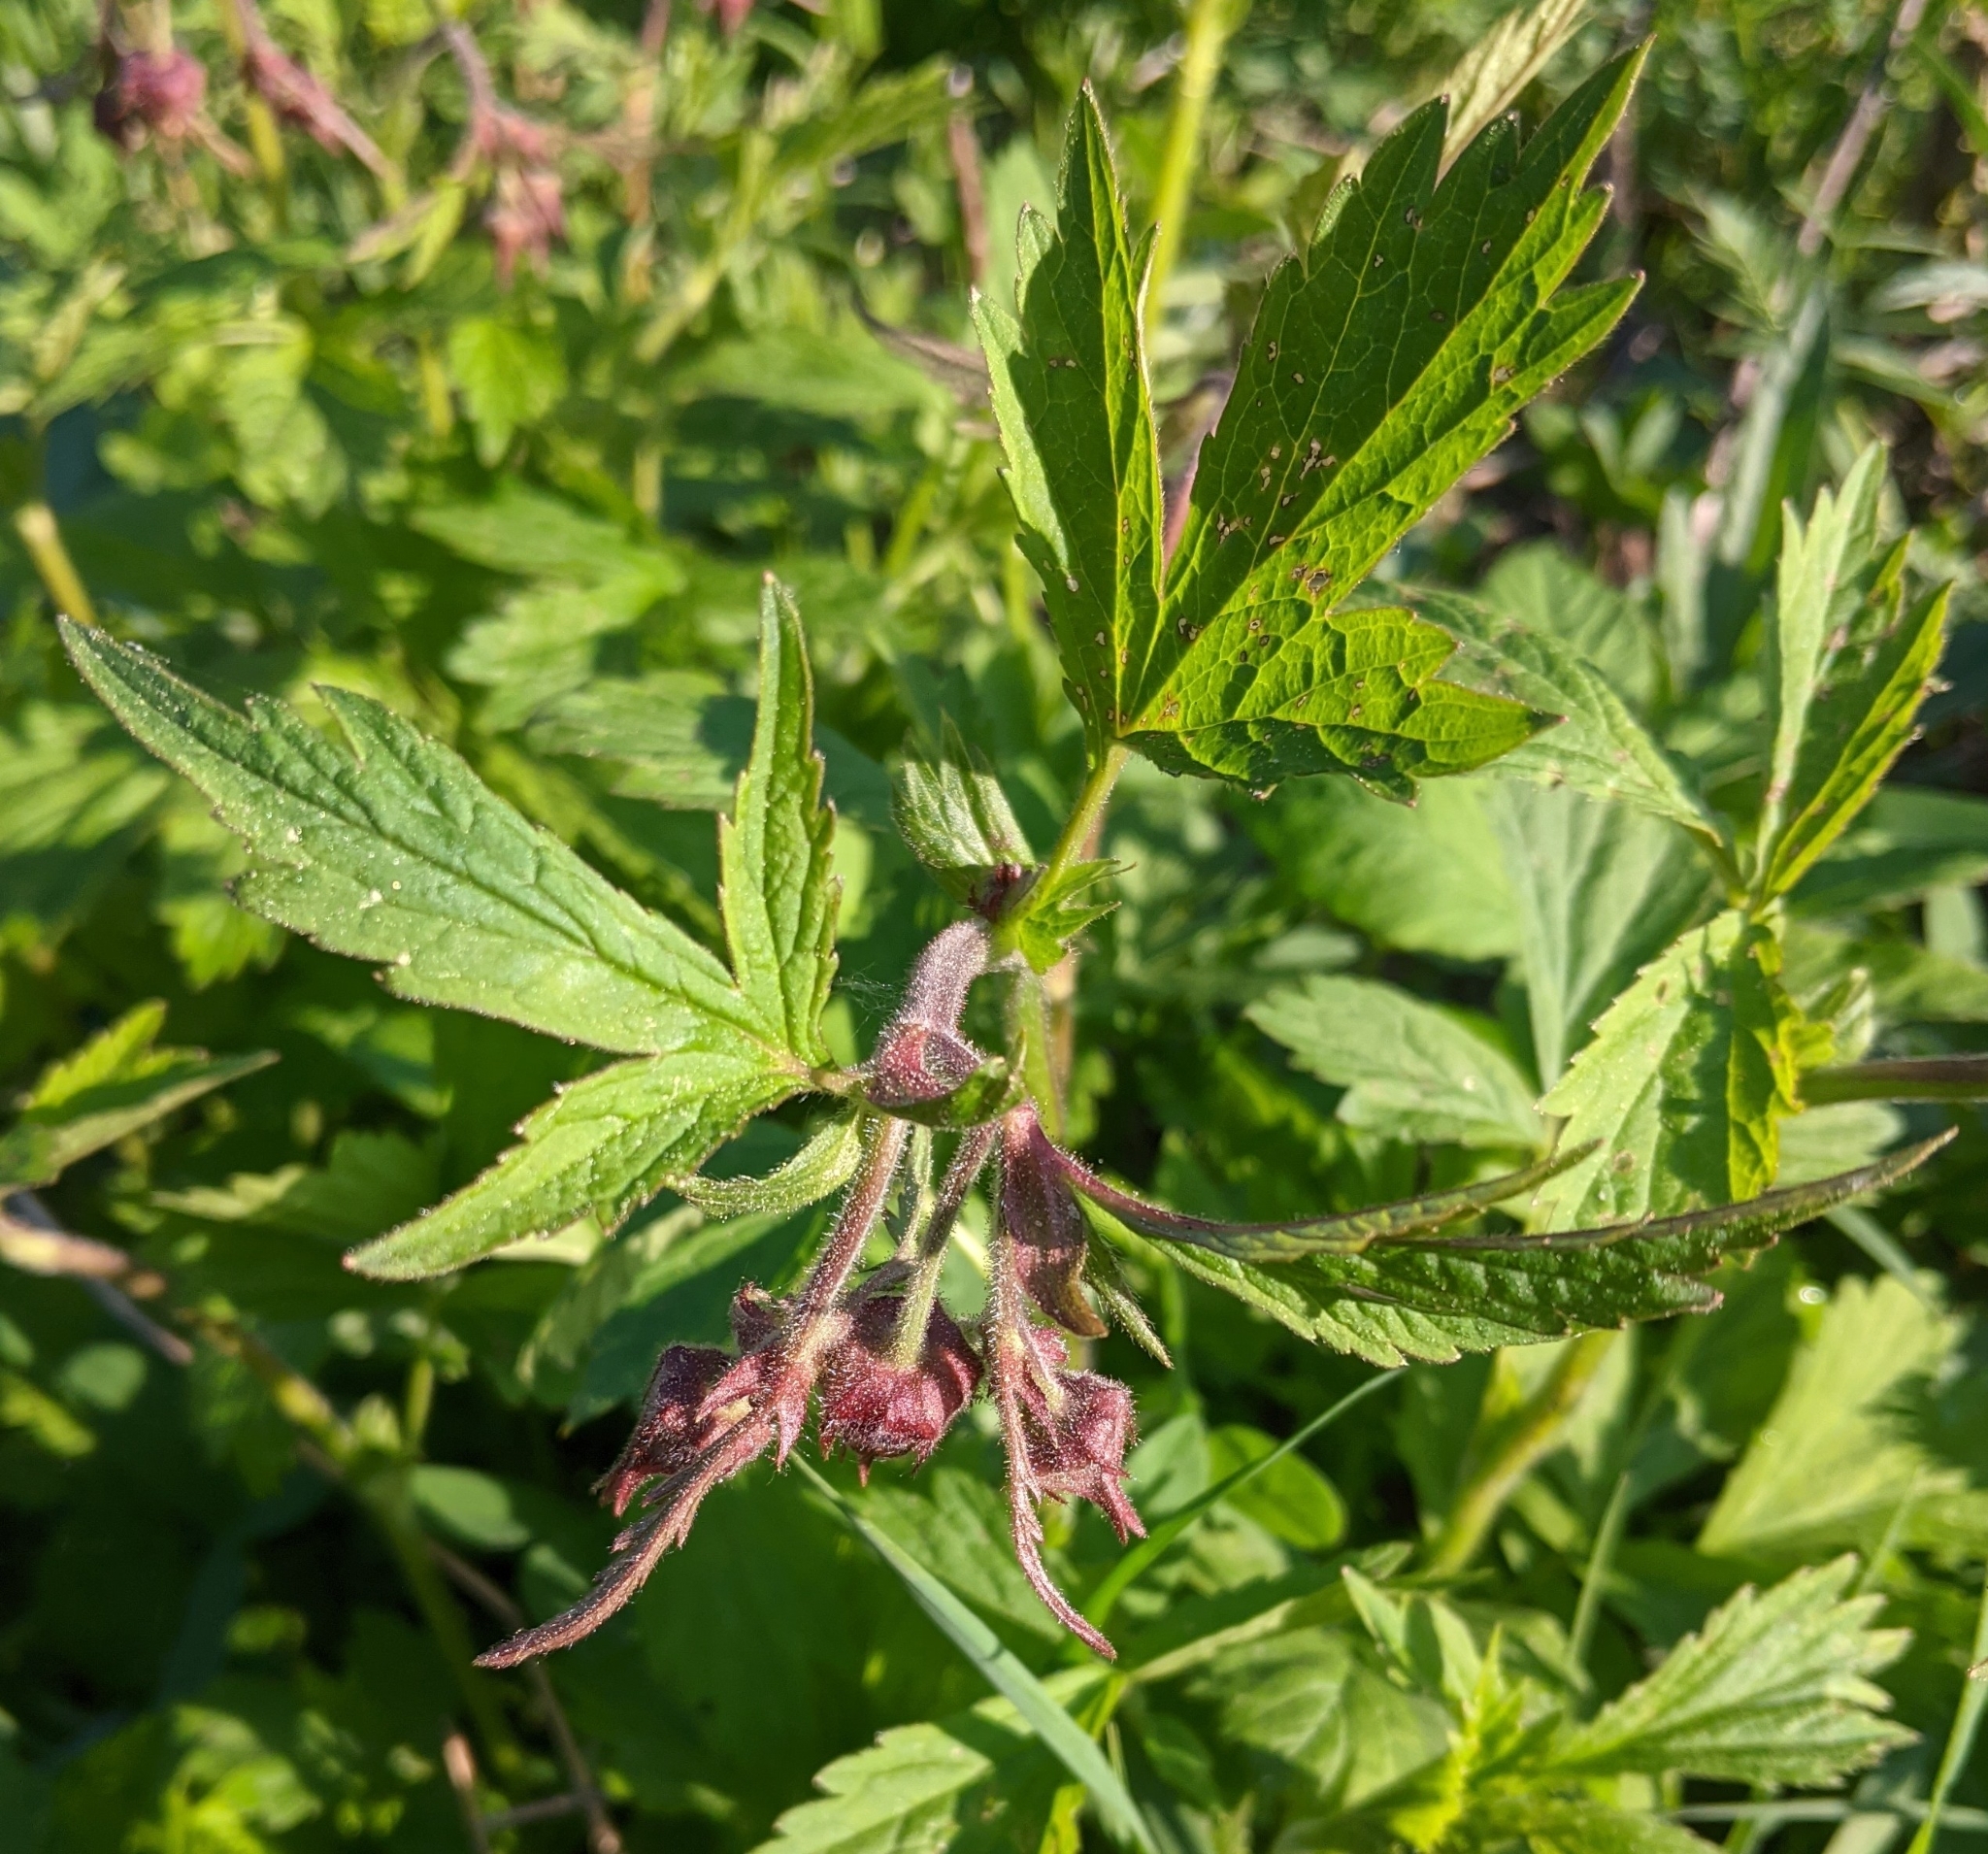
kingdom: Plantae
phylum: Tracheophyta
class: Magnoliopsida
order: Rosales
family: Rosaceae
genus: Geum
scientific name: Geum rivale
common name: Water avens
